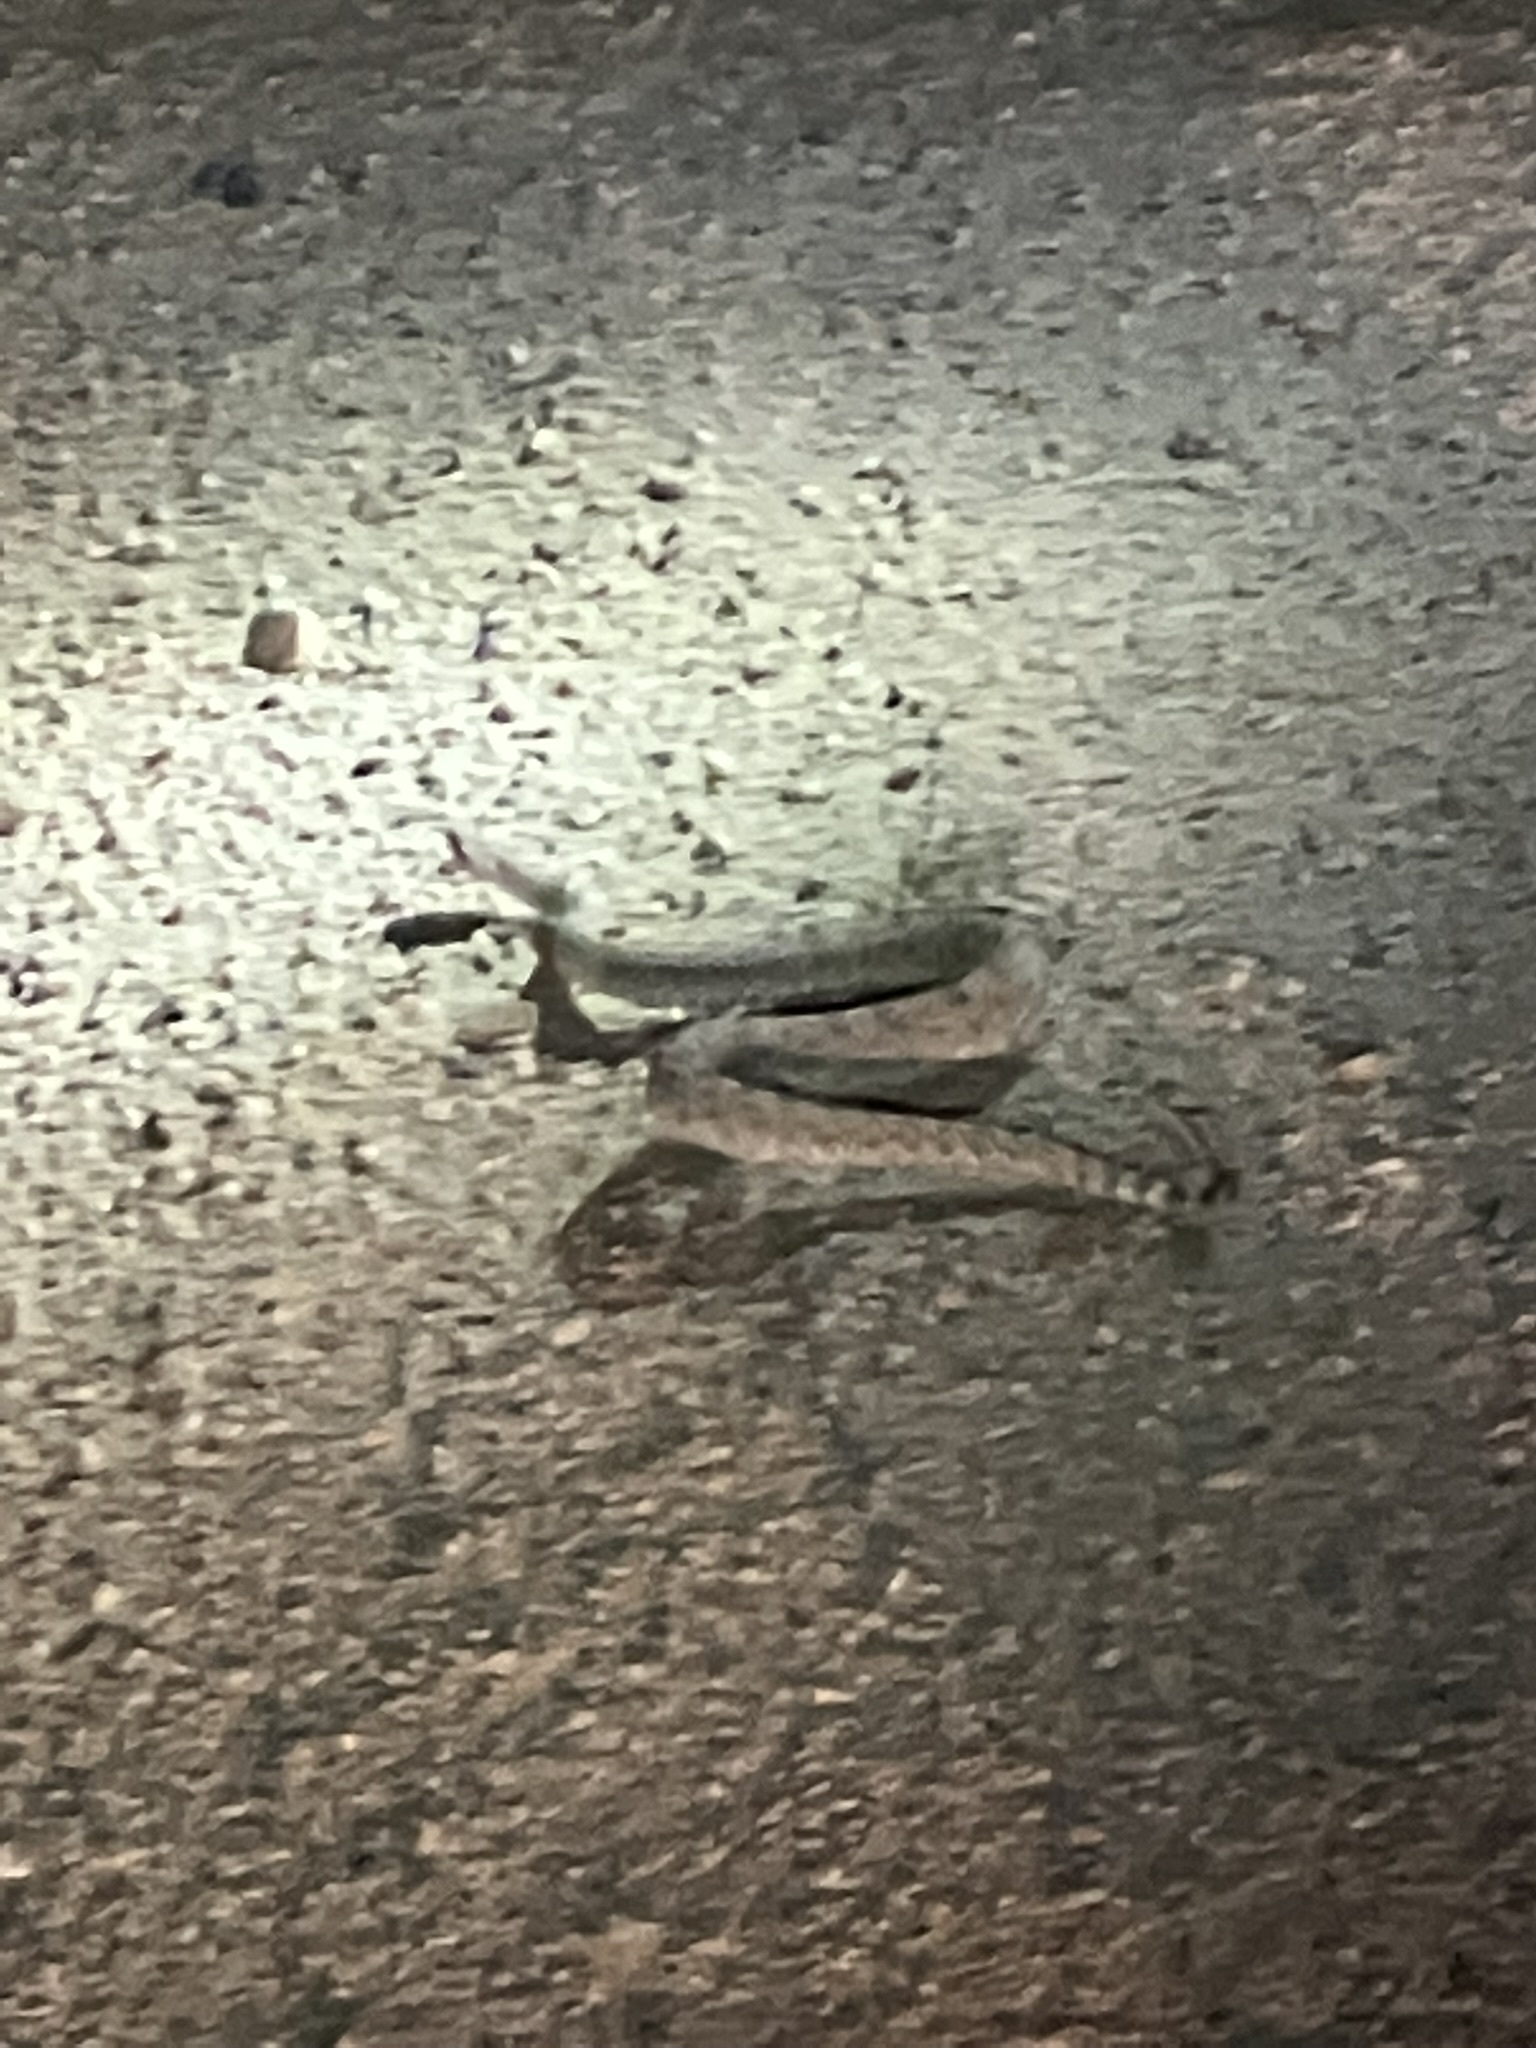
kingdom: Animalia
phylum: Chordata
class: Squamata
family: Viperidae
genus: Crotalus
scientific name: Crotalus cerastes
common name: Sidewinder
